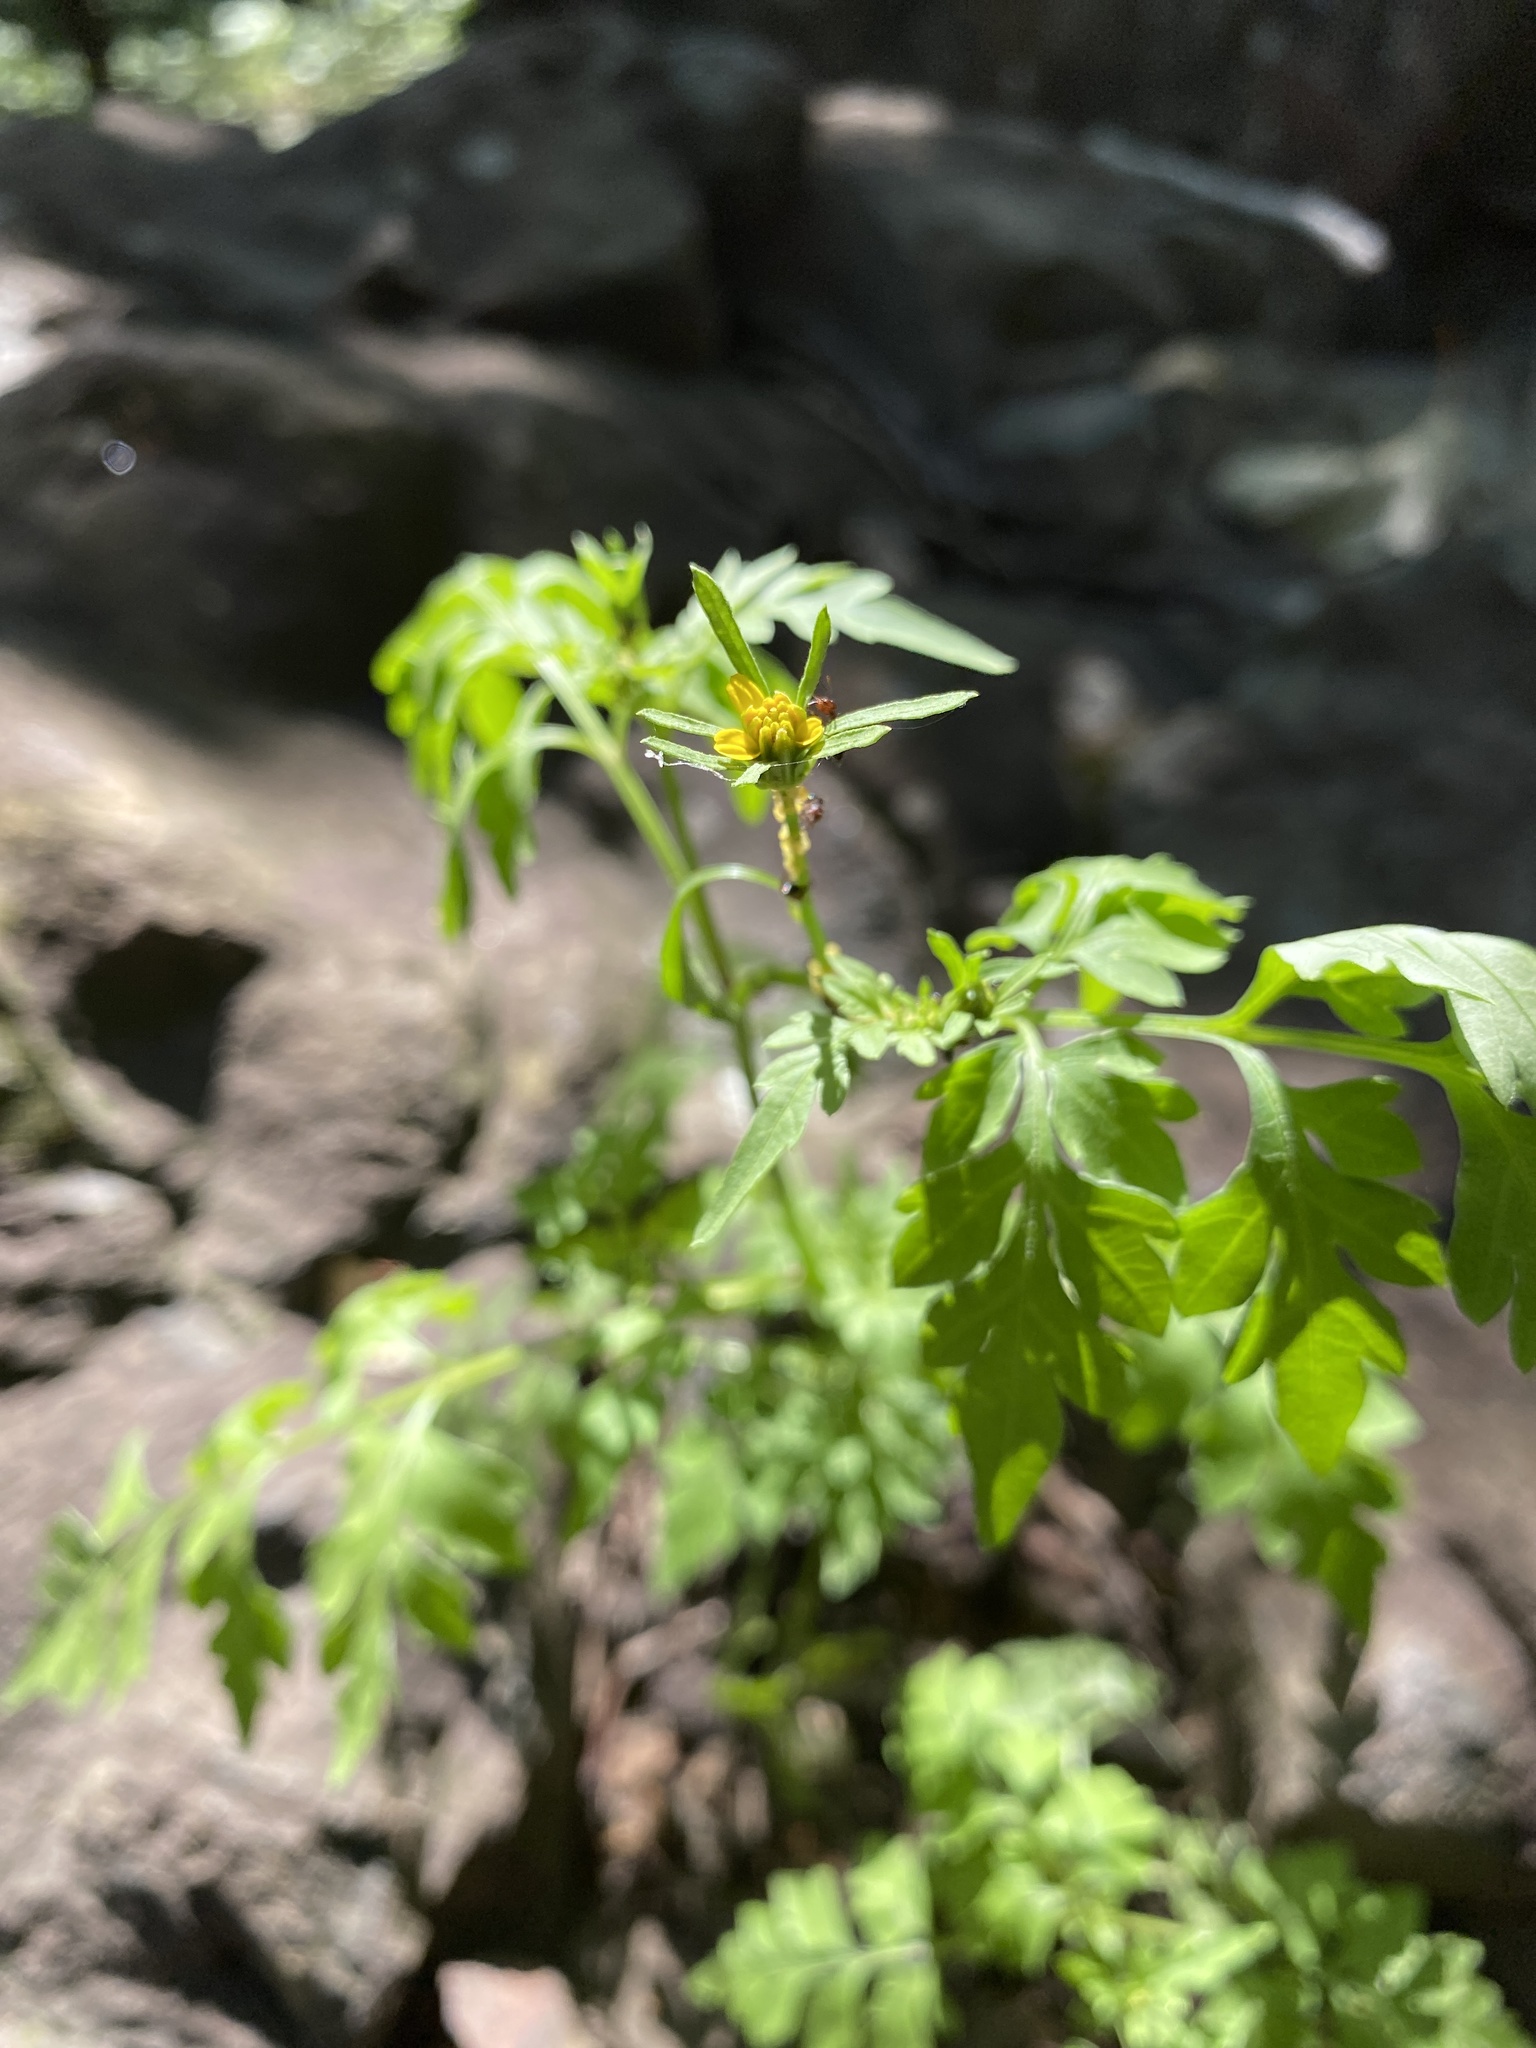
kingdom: Plantae
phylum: Tracheophyta
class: Magnoliopsida
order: Asterales
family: Asteraceae
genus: Bidens
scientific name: Bidens bipinnata
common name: Spanish-needles
